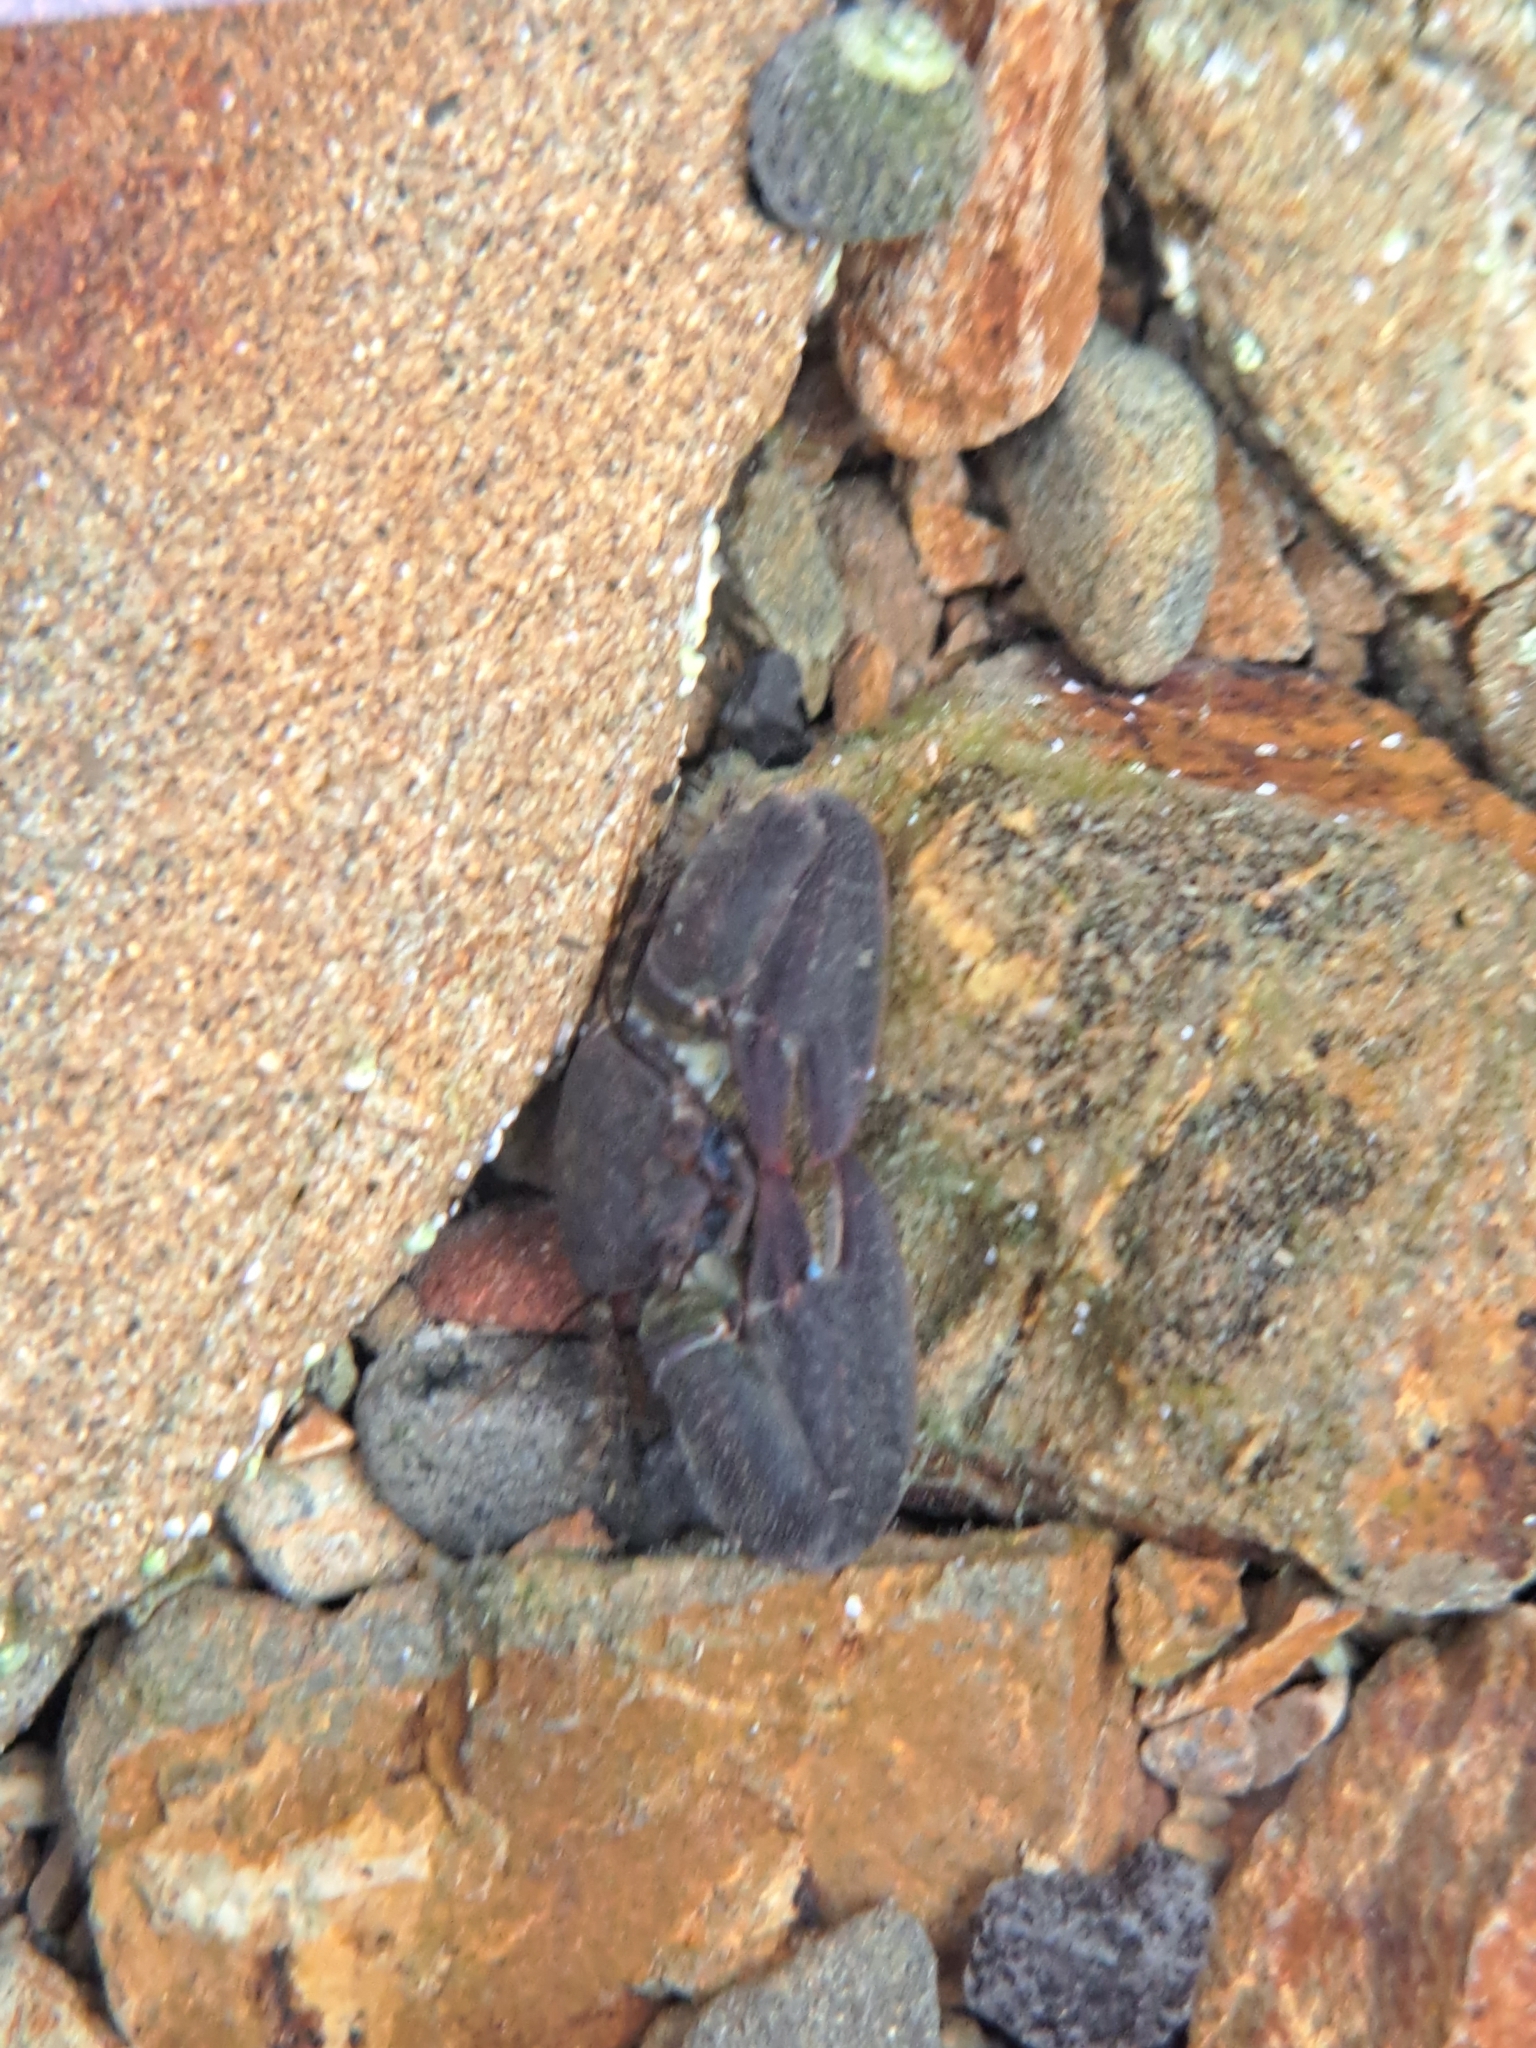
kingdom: Animalia
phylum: Arthropoda
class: Malacostraca
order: Decapoda
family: Porcellanidae
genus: Petrolisthes
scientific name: Petrolisthes elongatus
